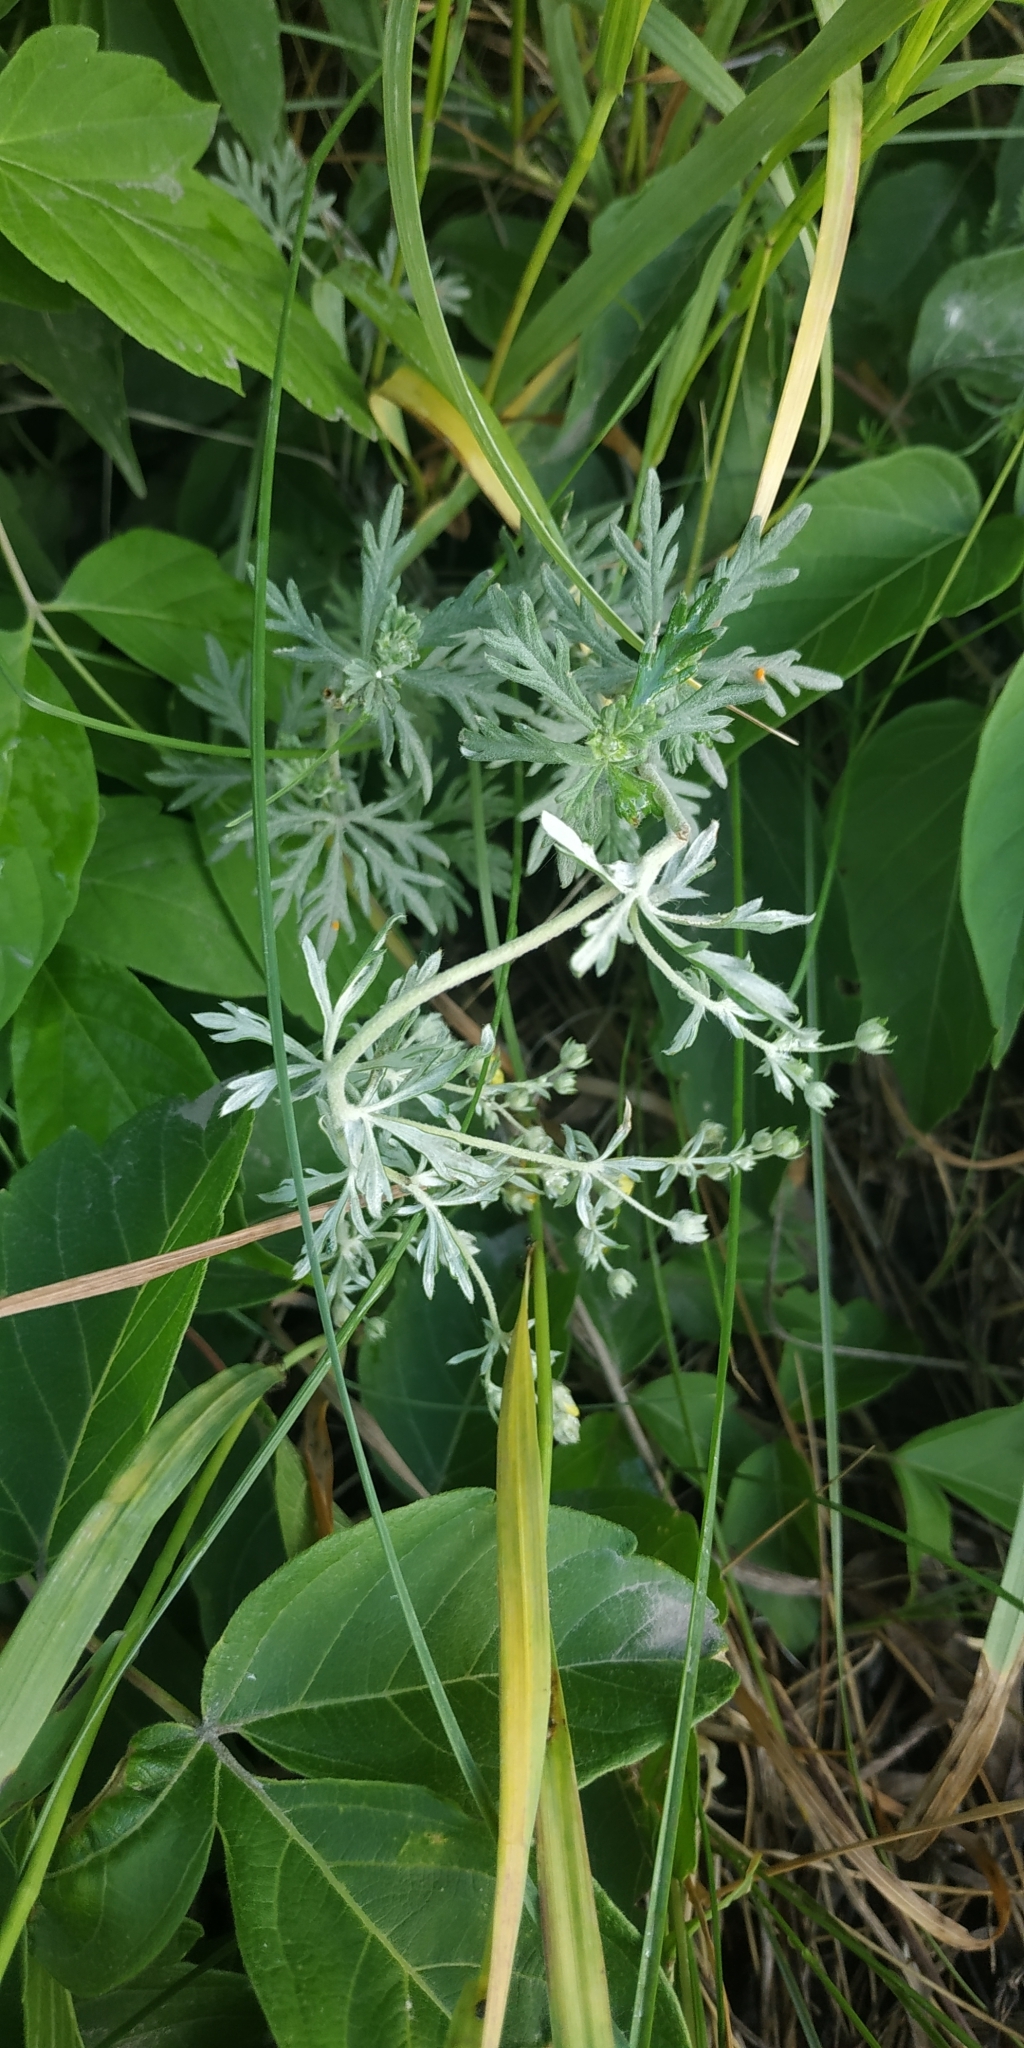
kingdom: Plantae
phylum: Tracheophyta
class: Magnoliopsida
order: Rosales
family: Rosaceae
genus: Potentilla
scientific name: Potentilla argentea
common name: Hoary cinquefoil
